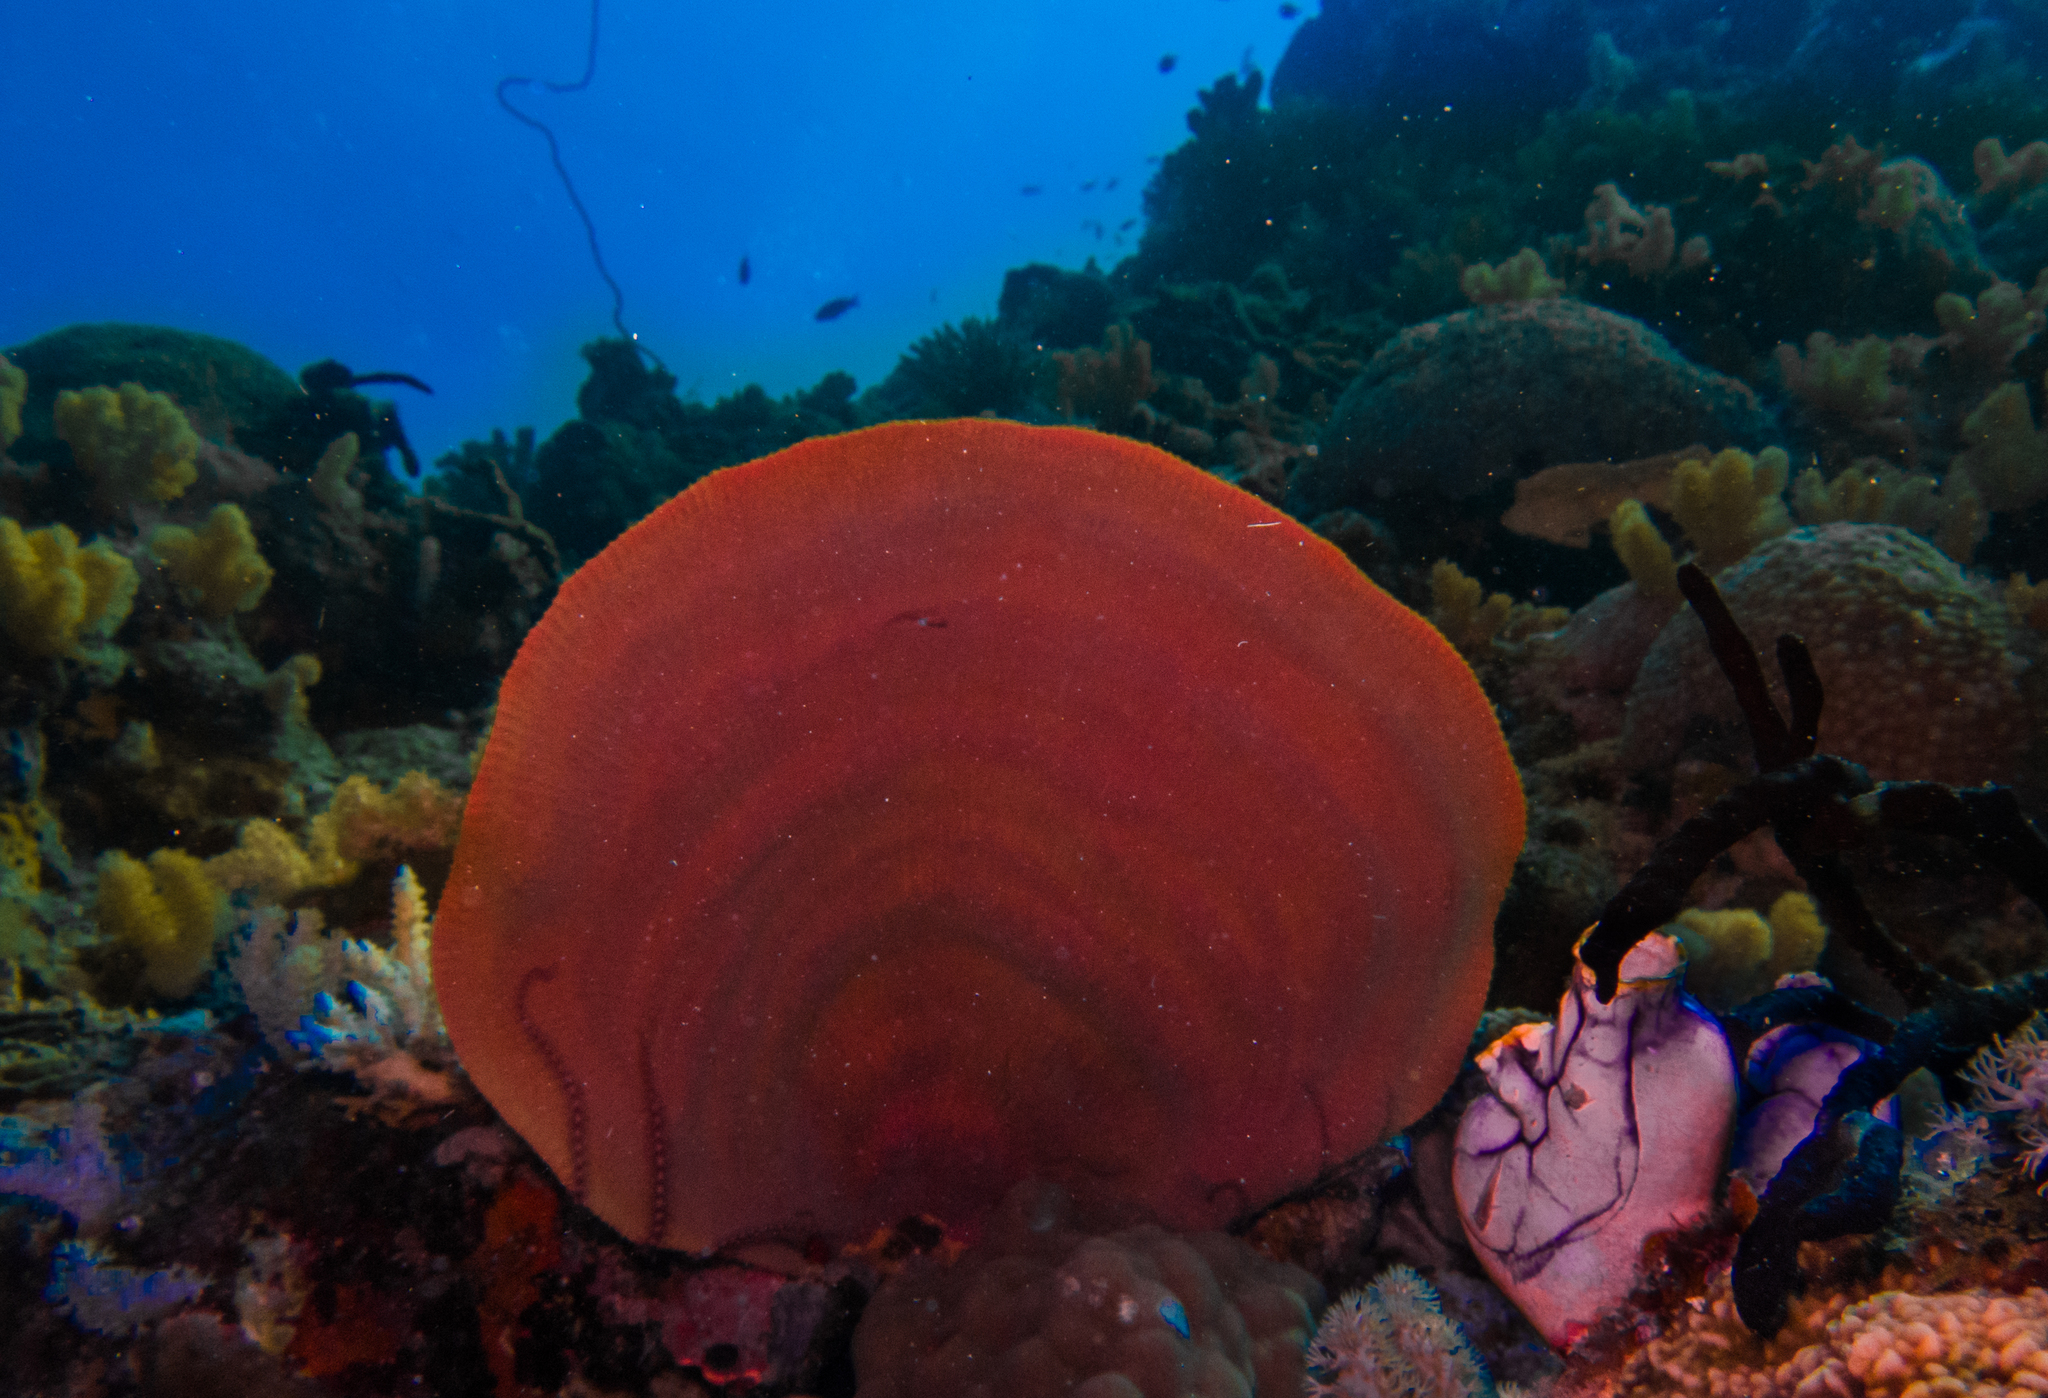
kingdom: Animalia
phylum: Porifera
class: Demospongiae
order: Verongiida
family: Ianthellidae
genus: Ianthella
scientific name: Ianthella basta
